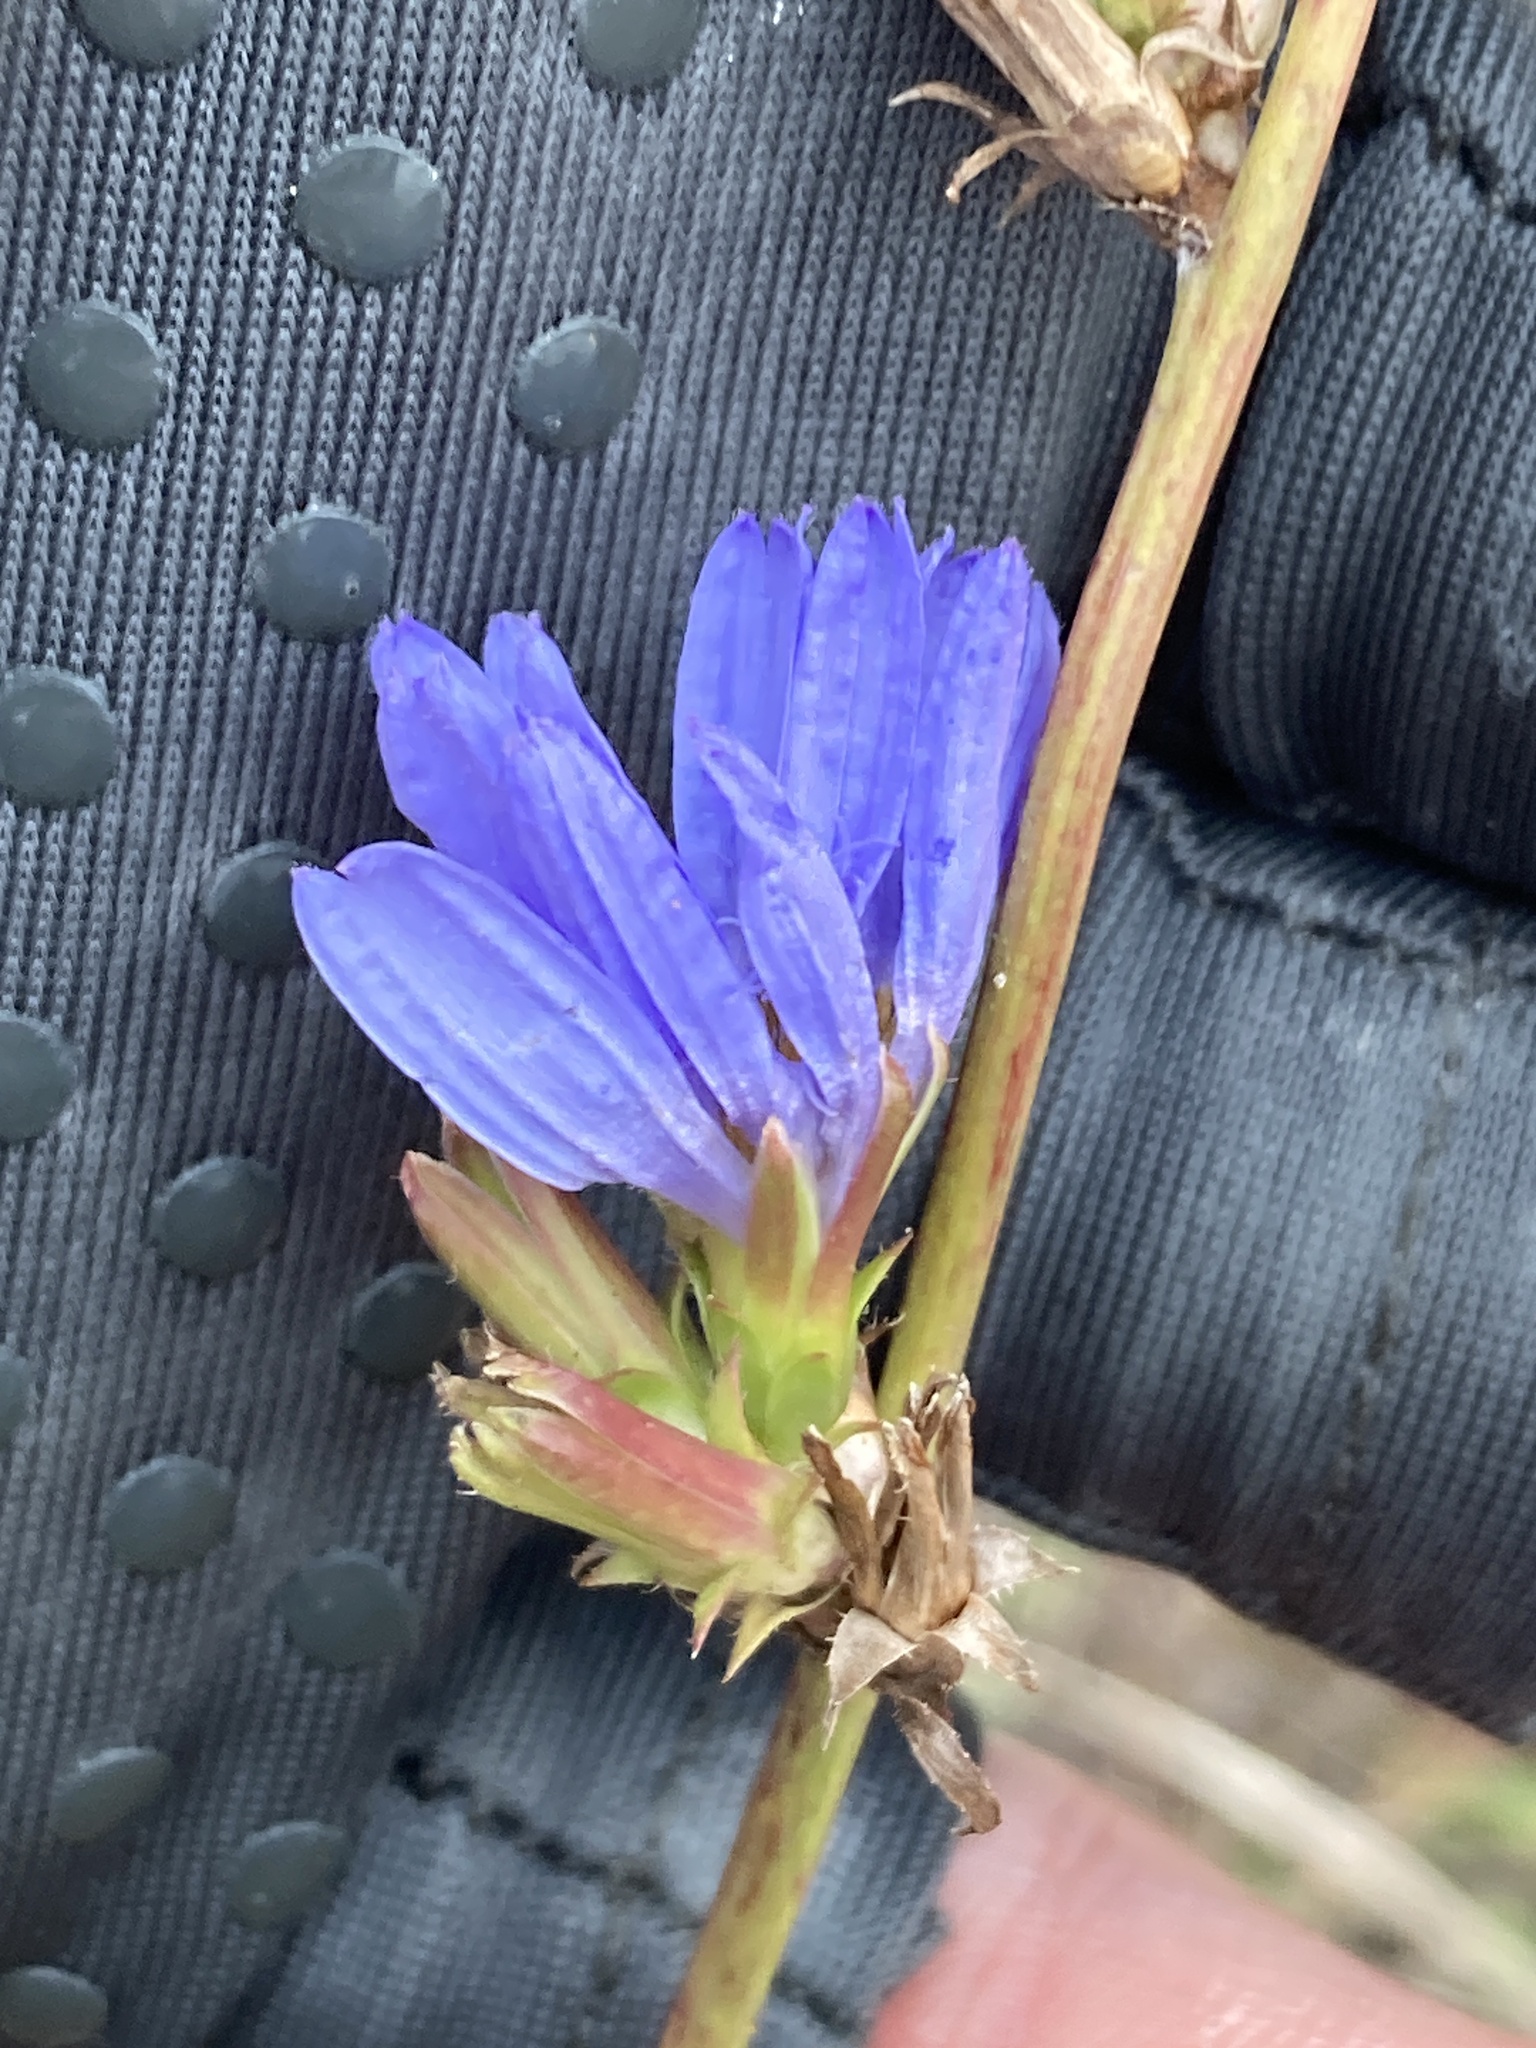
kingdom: Plantae
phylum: Tracheophyta
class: Magnoliopsida
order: Asterales
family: Asteraceae
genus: Cichorium
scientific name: Cichorium intybus
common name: Chicory
